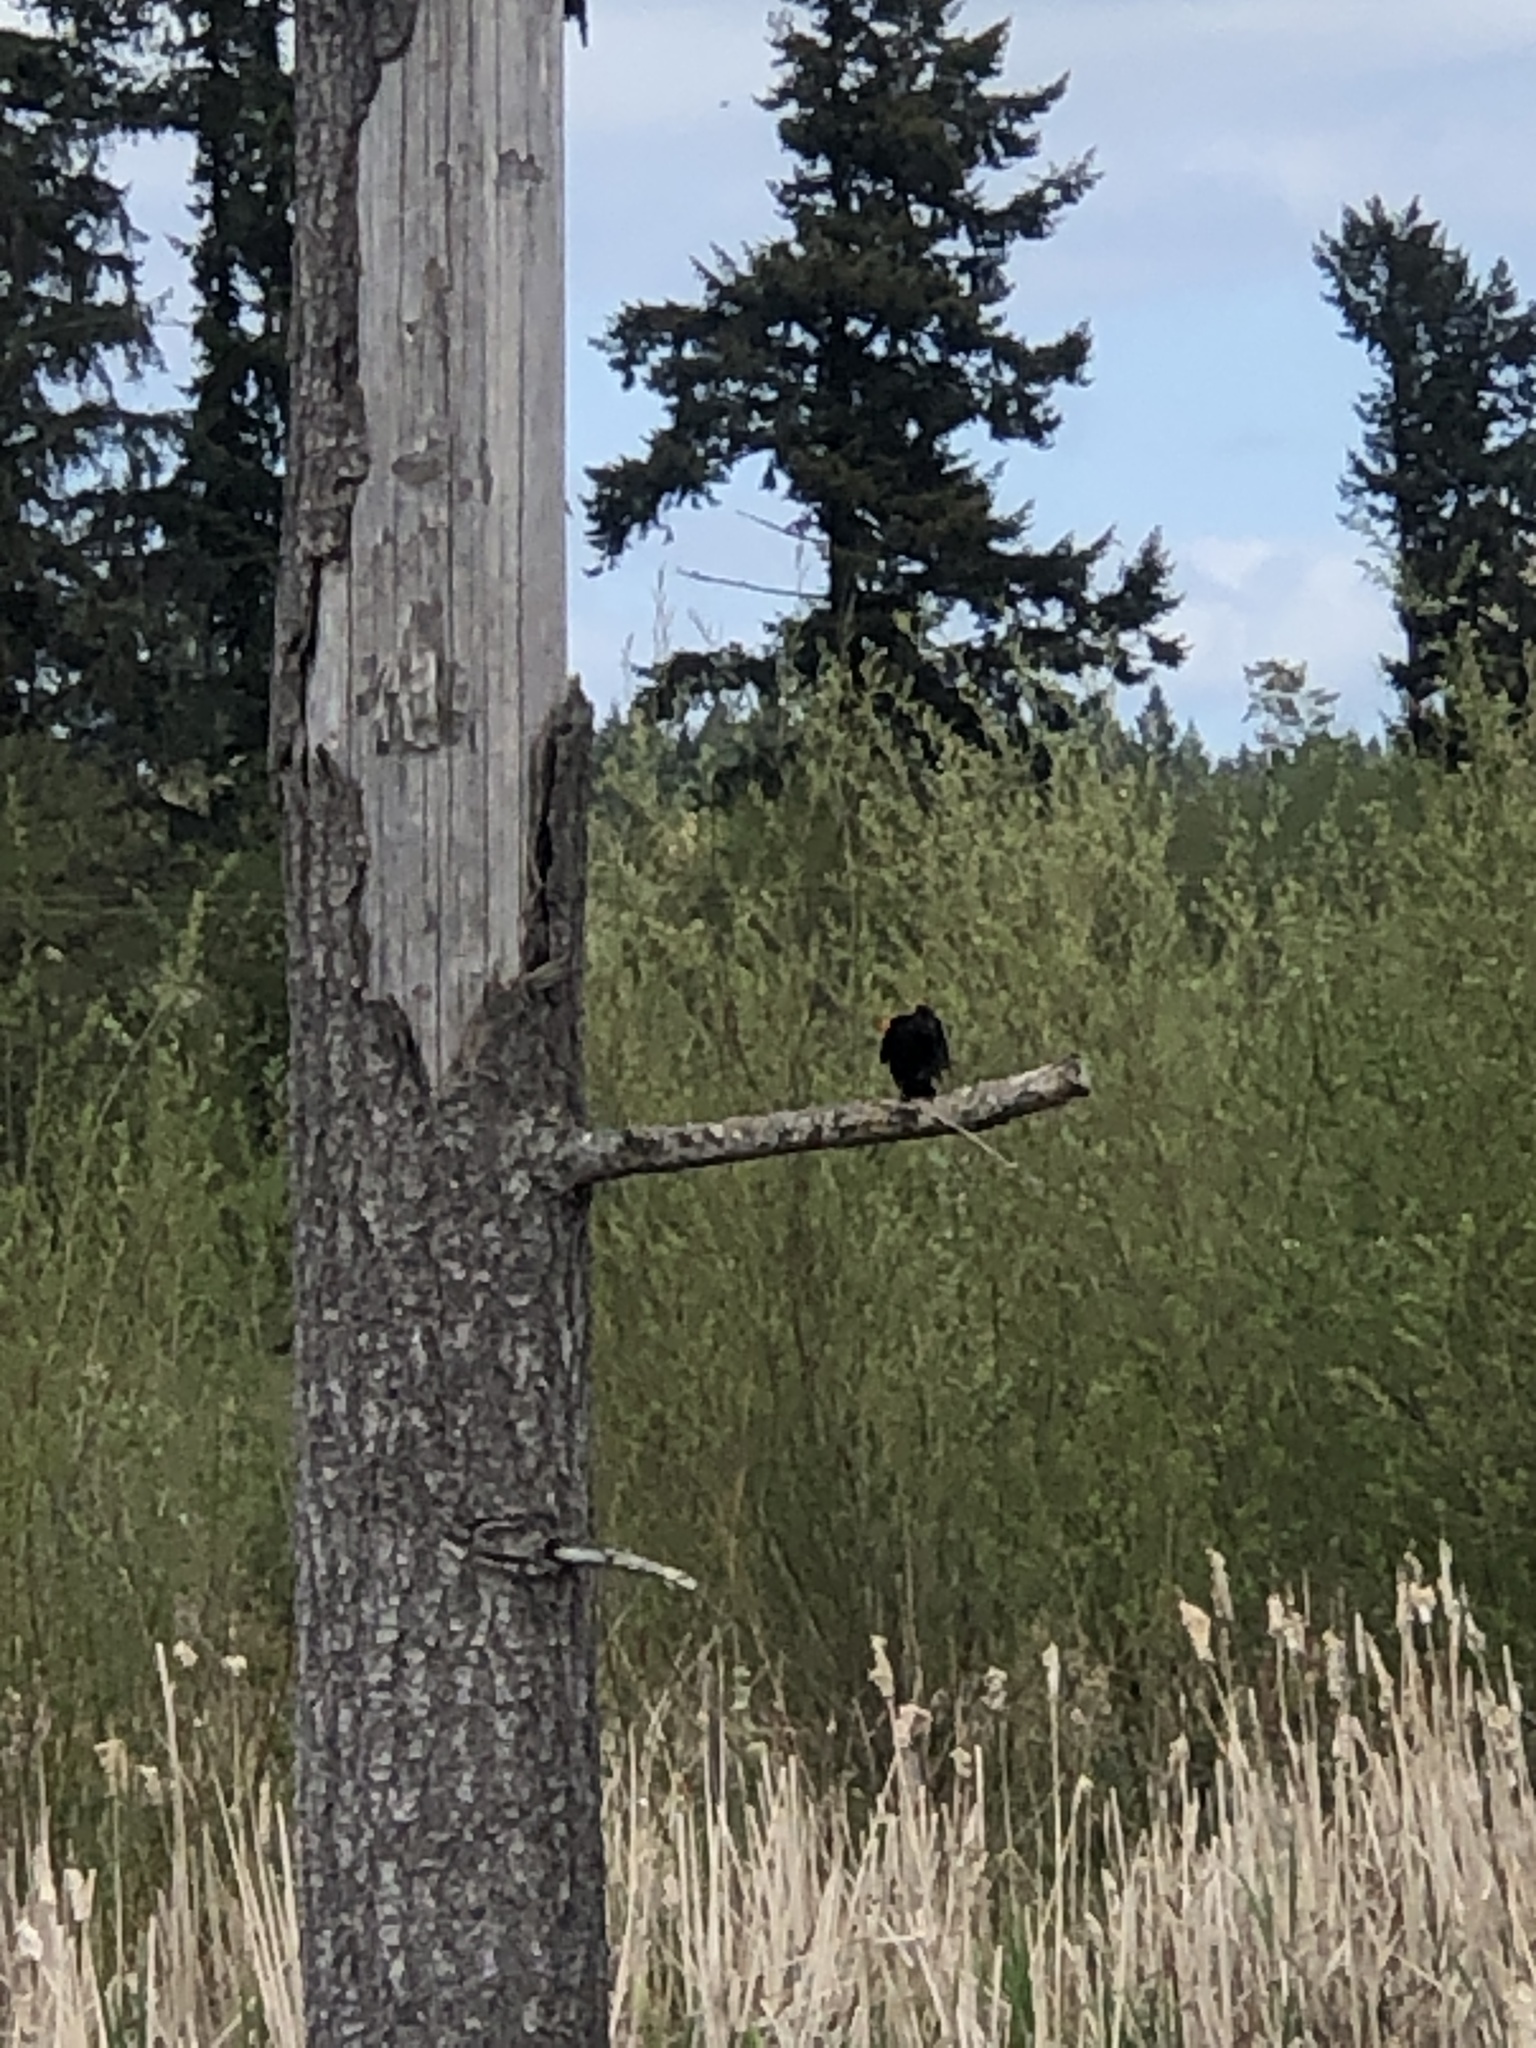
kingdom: Animalia
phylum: Chordata
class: Aves
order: Passeriformes
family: Icteridae
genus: Agelaius
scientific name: Agelaius phoeniceus
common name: Red-winged blackbird
